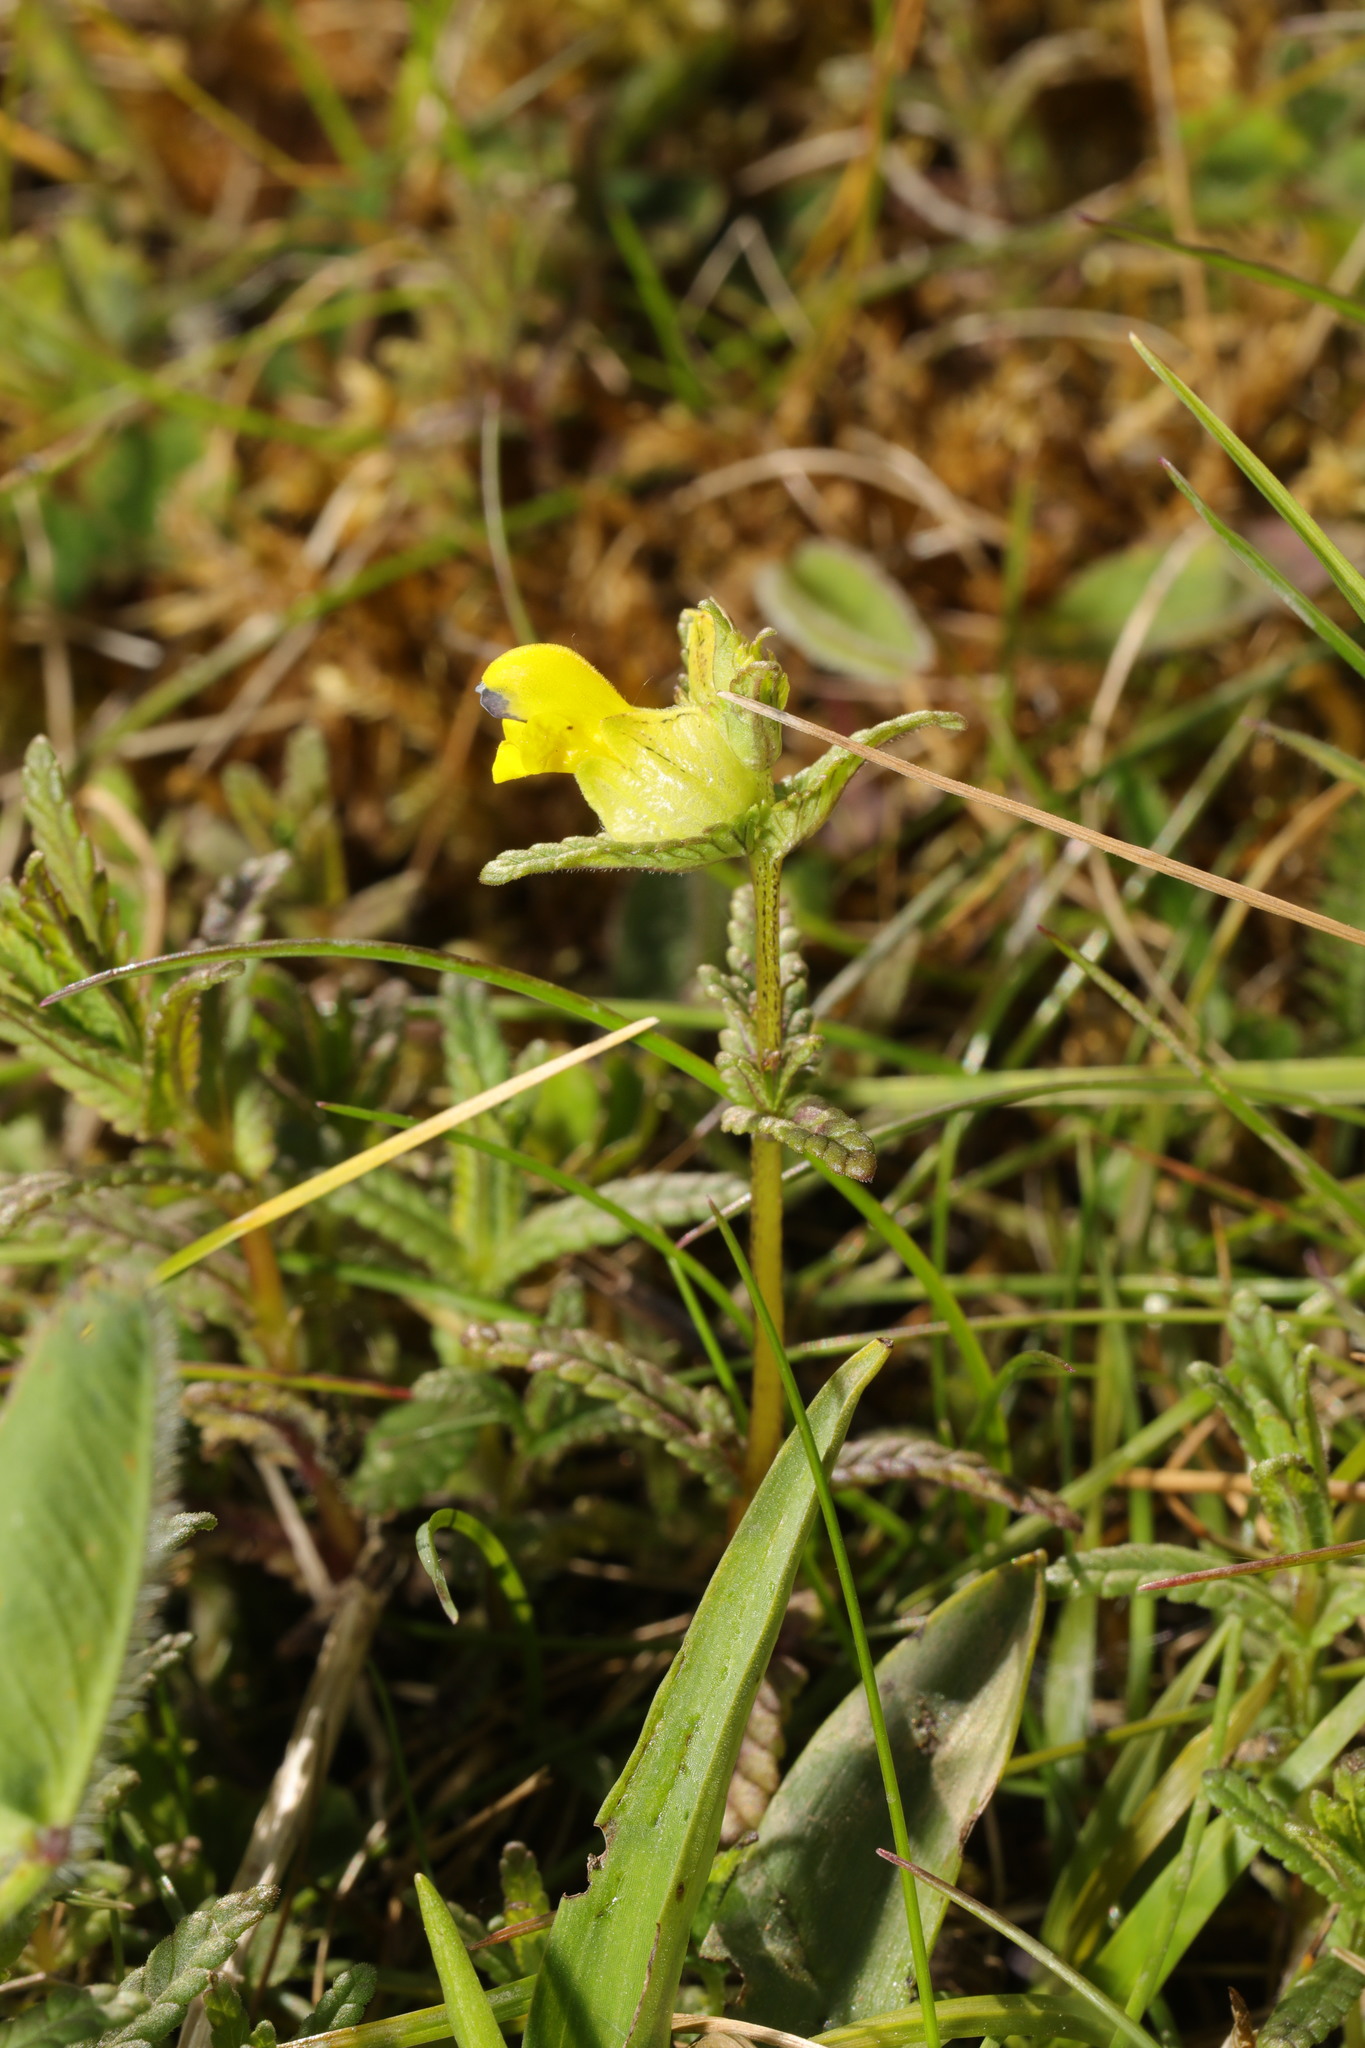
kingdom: Plantae
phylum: Tracheophyta
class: Magnoliopsida
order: Lamiales
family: Orobanchaceae
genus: Rhinanthus
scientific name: Rhinanthus minor
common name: Yellow-rattle
